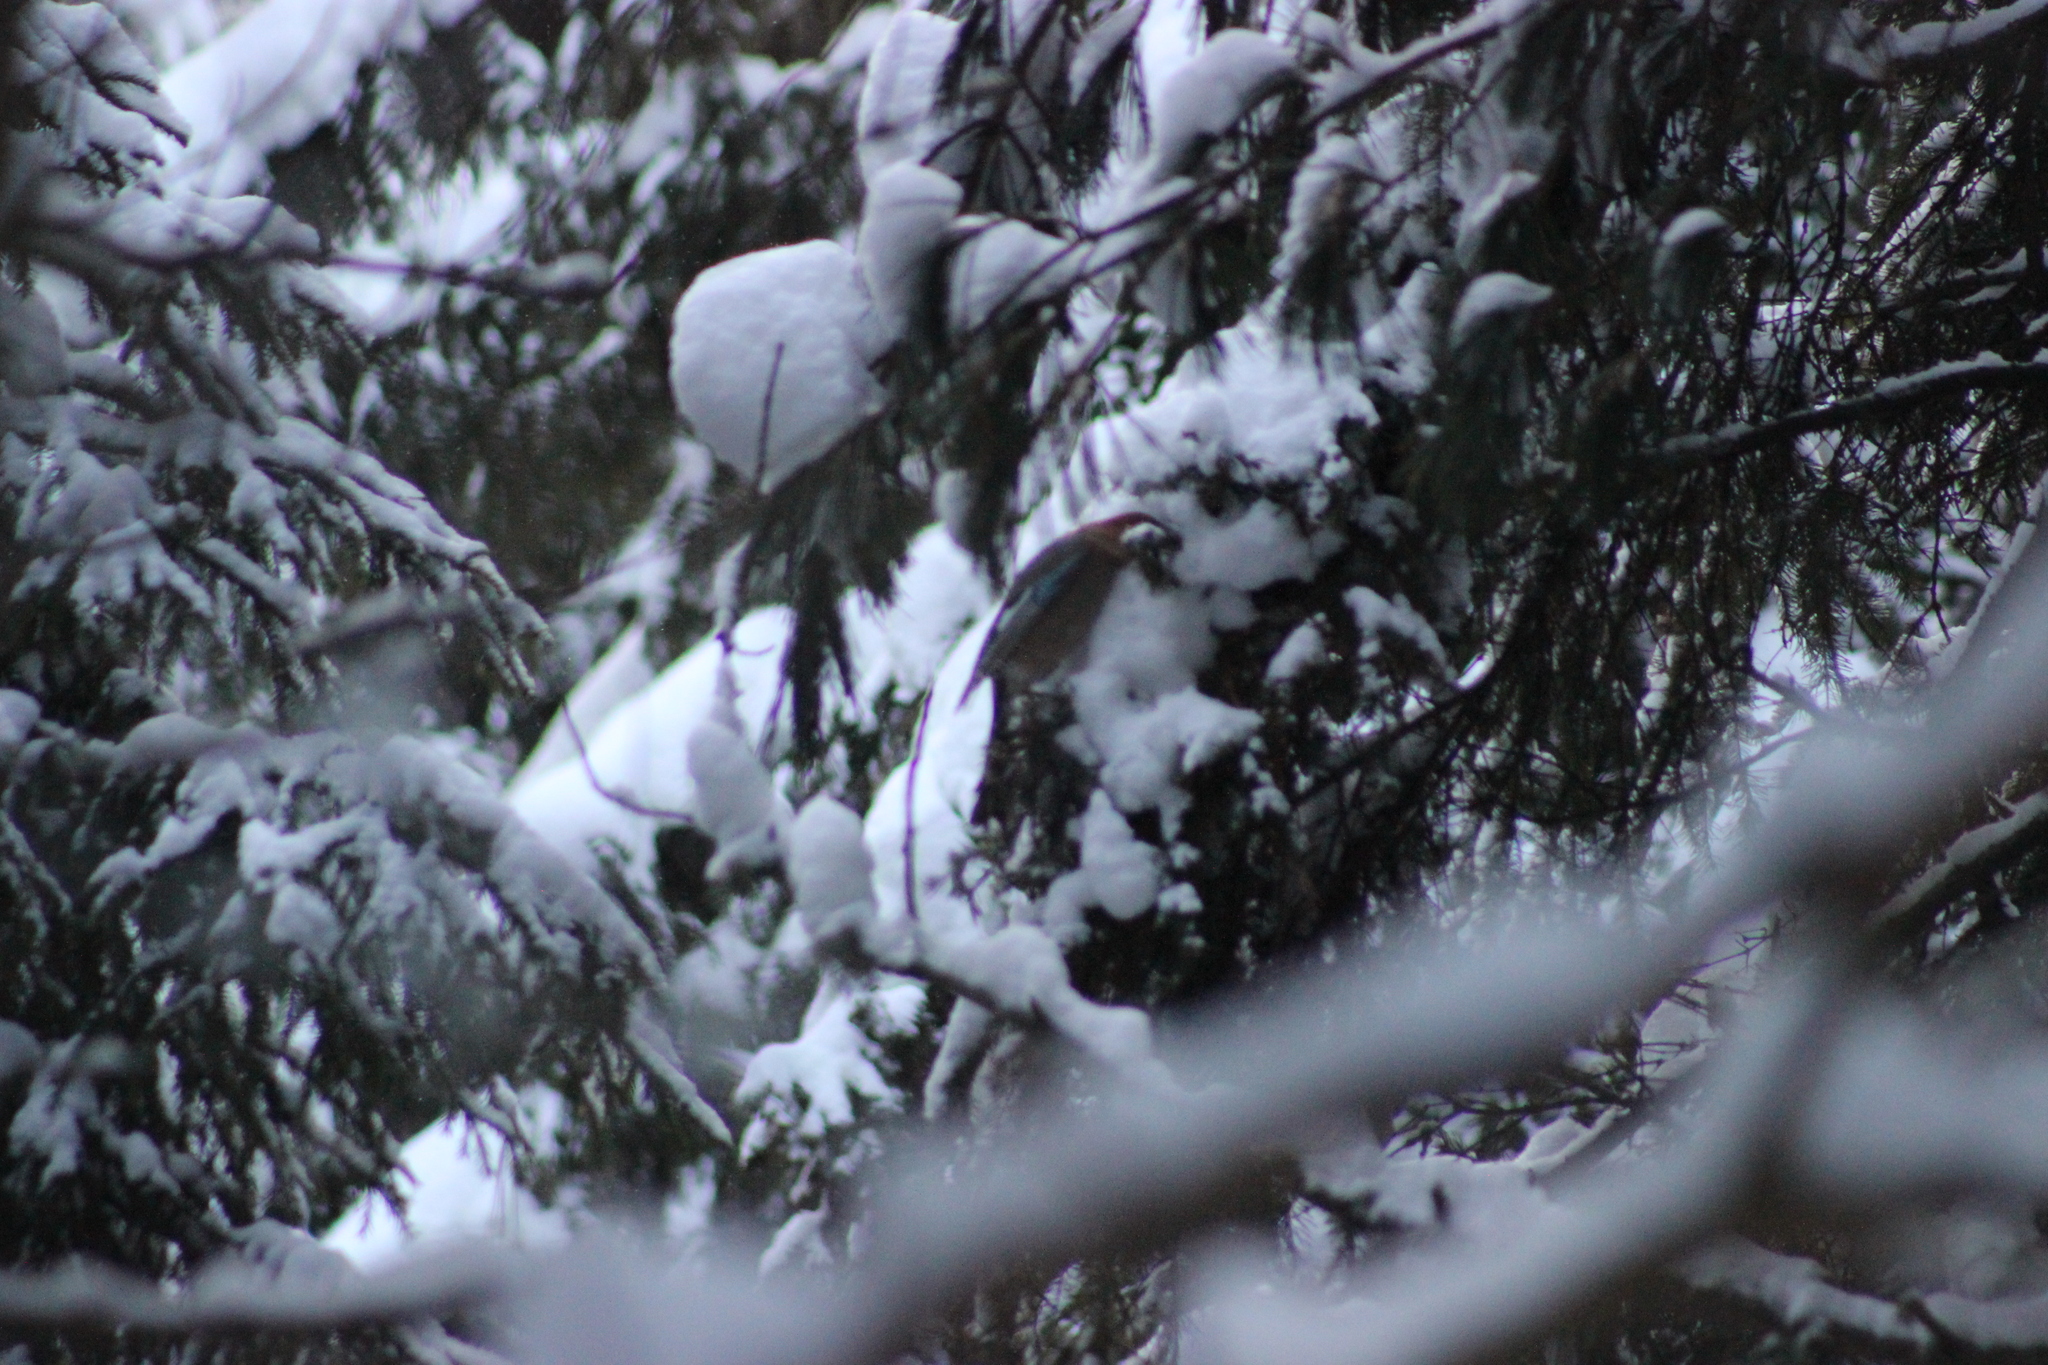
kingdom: Animalia
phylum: Chordata
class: Aves
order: Passeriformes
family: Corvidae
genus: Garrulus
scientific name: Garrulus glandarius
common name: Eurasian jay
